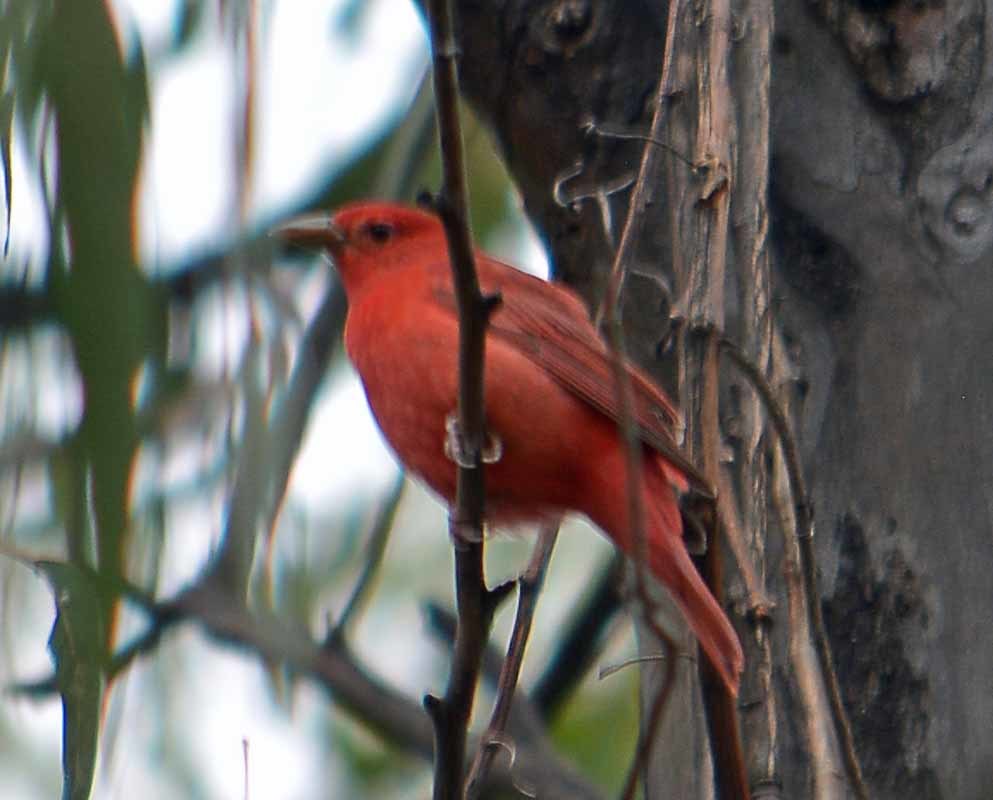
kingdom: Animalia
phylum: Chordata
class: Aves
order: Passeriformes
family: Cardinalidae
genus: Piranga
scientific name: Piranga rubra
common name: Summer tanager
